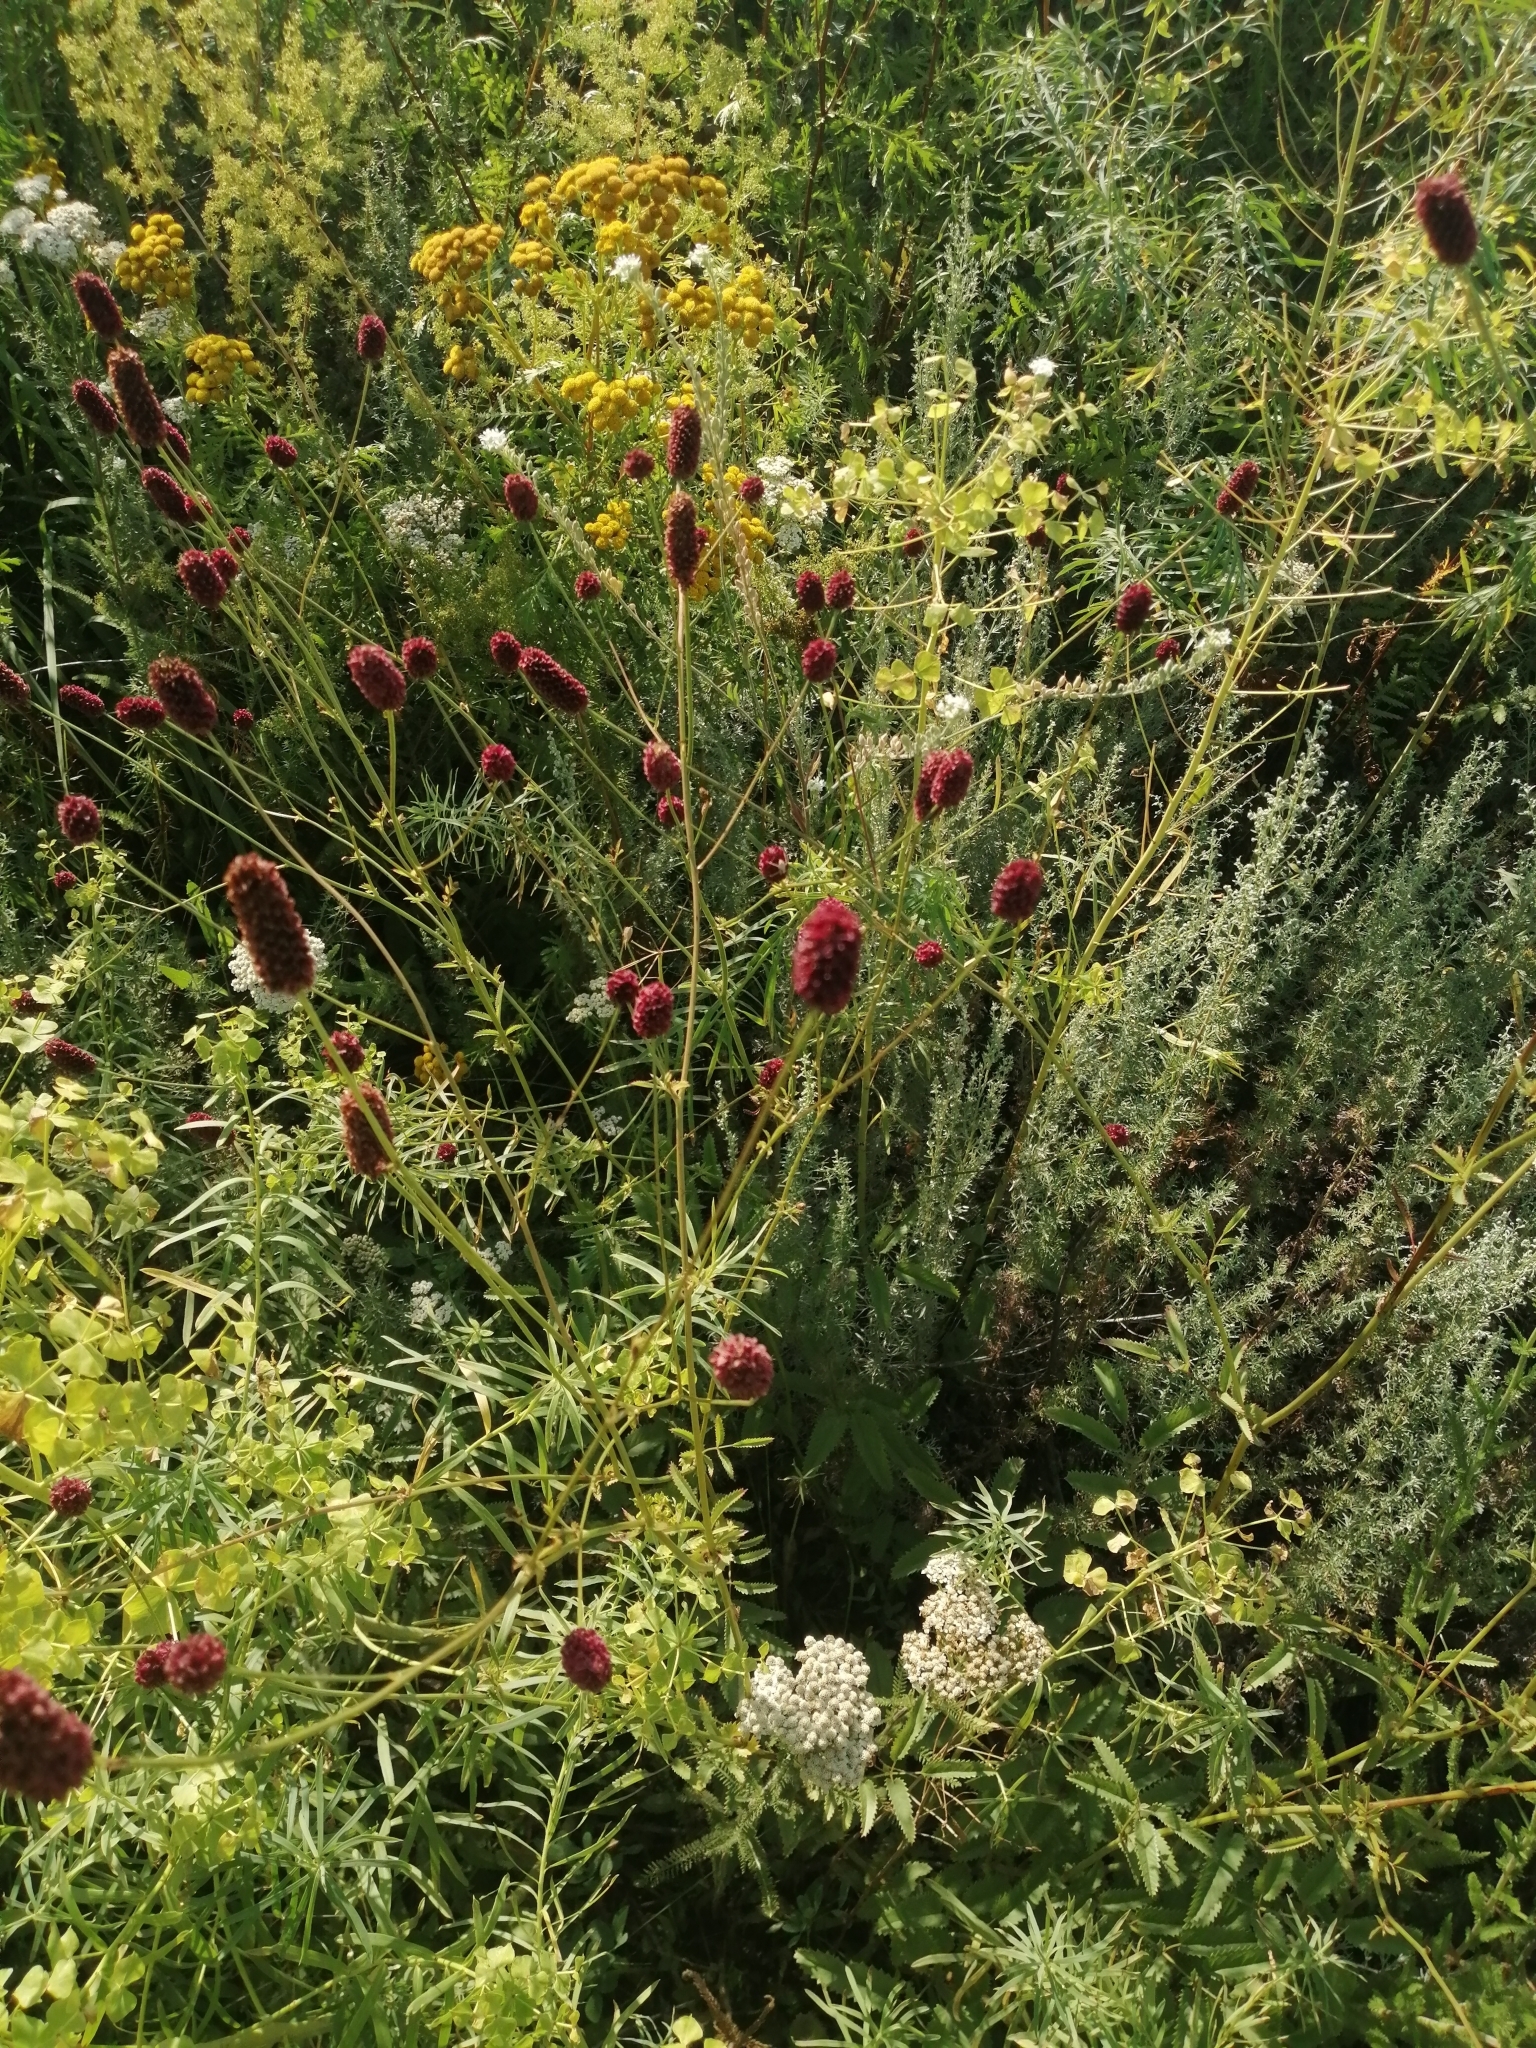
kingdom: Plantae
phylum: Tracheophyta
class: Magnoliopsida
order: Rosales
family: Rosaceae
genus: Sanguisorba
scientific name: Sanguisorba officinalis
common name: Great burnet
